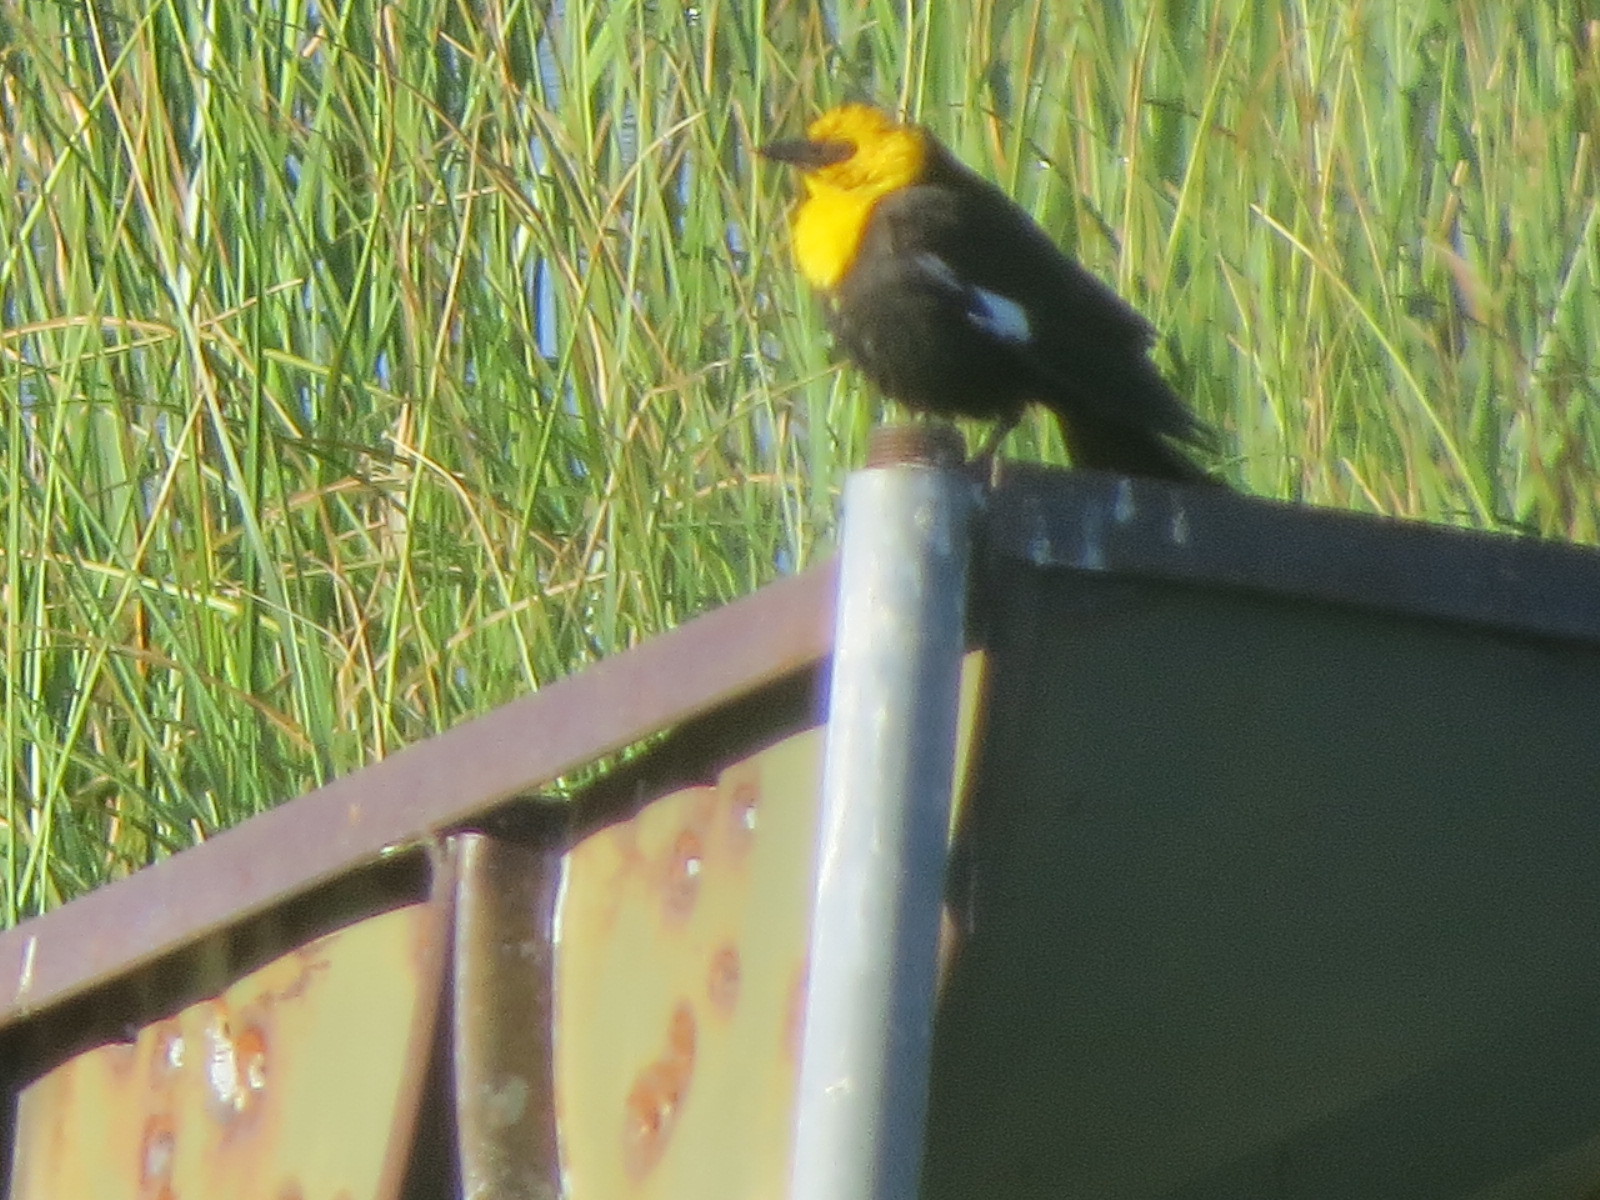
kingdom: Animalia
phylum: Chordata
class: Aves
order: Passeriformes
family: Icteridae
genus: Xanthocephalus
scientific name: Xanthocephalus xanthocephalus
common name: Yellow-headed blackbird
